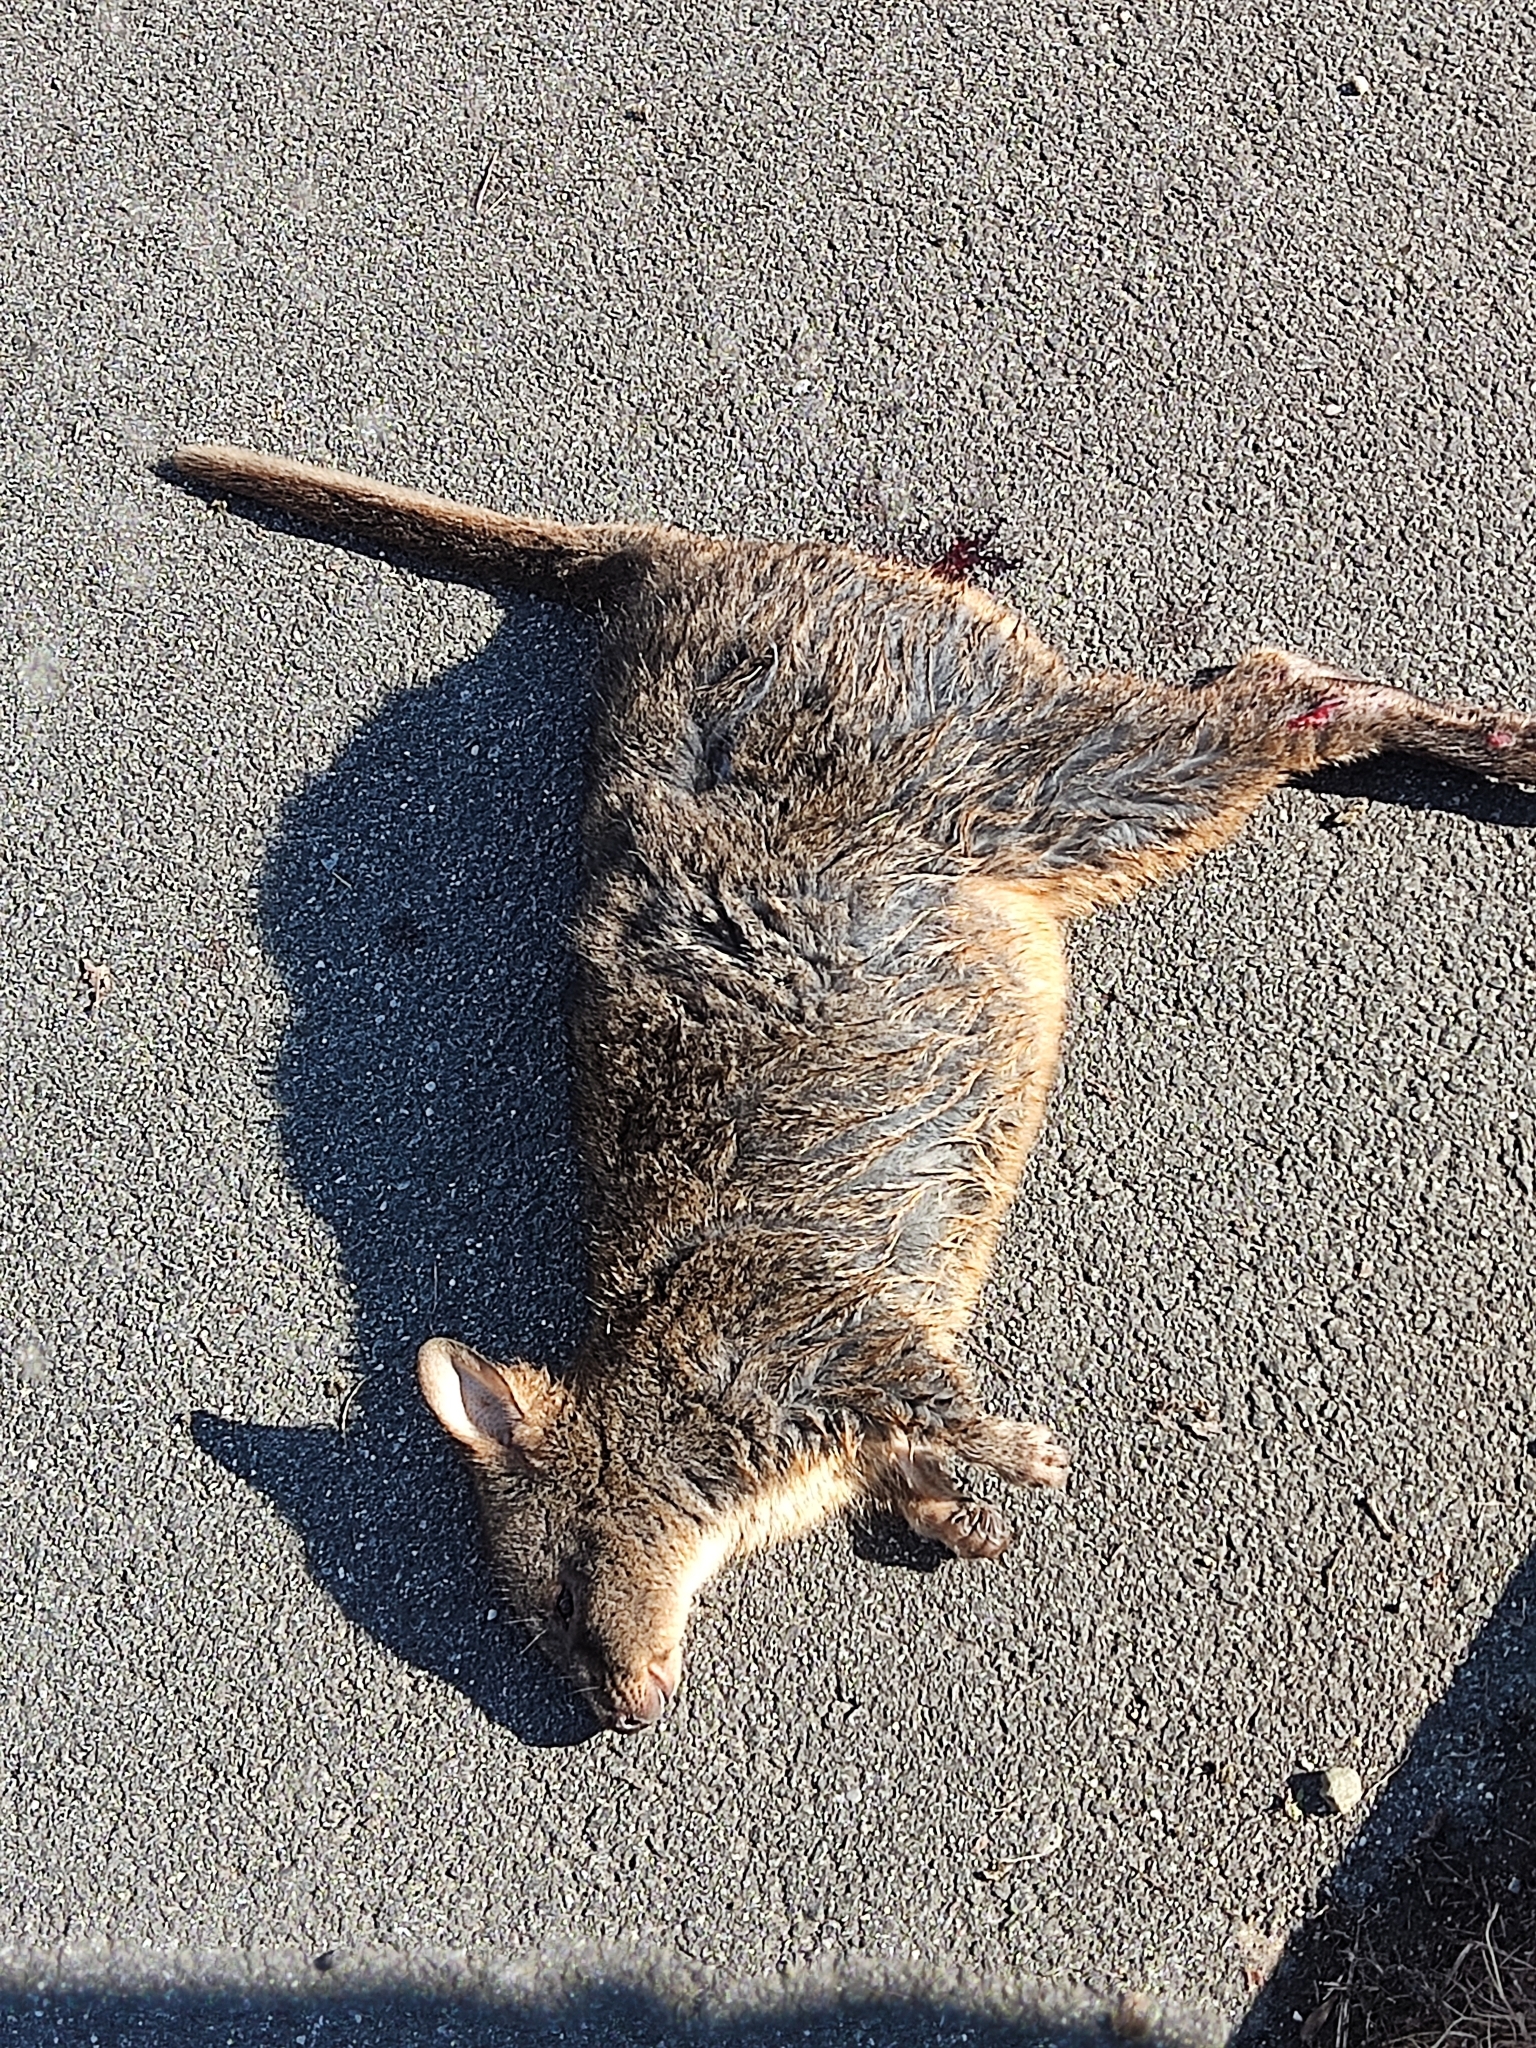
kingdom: Animalia
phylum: Chordata
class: Mammalia
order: Diprotodontia
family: Macropodidae
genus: Thylogale
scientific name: Thylogale billardierii
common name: Tasmanian pademelon
